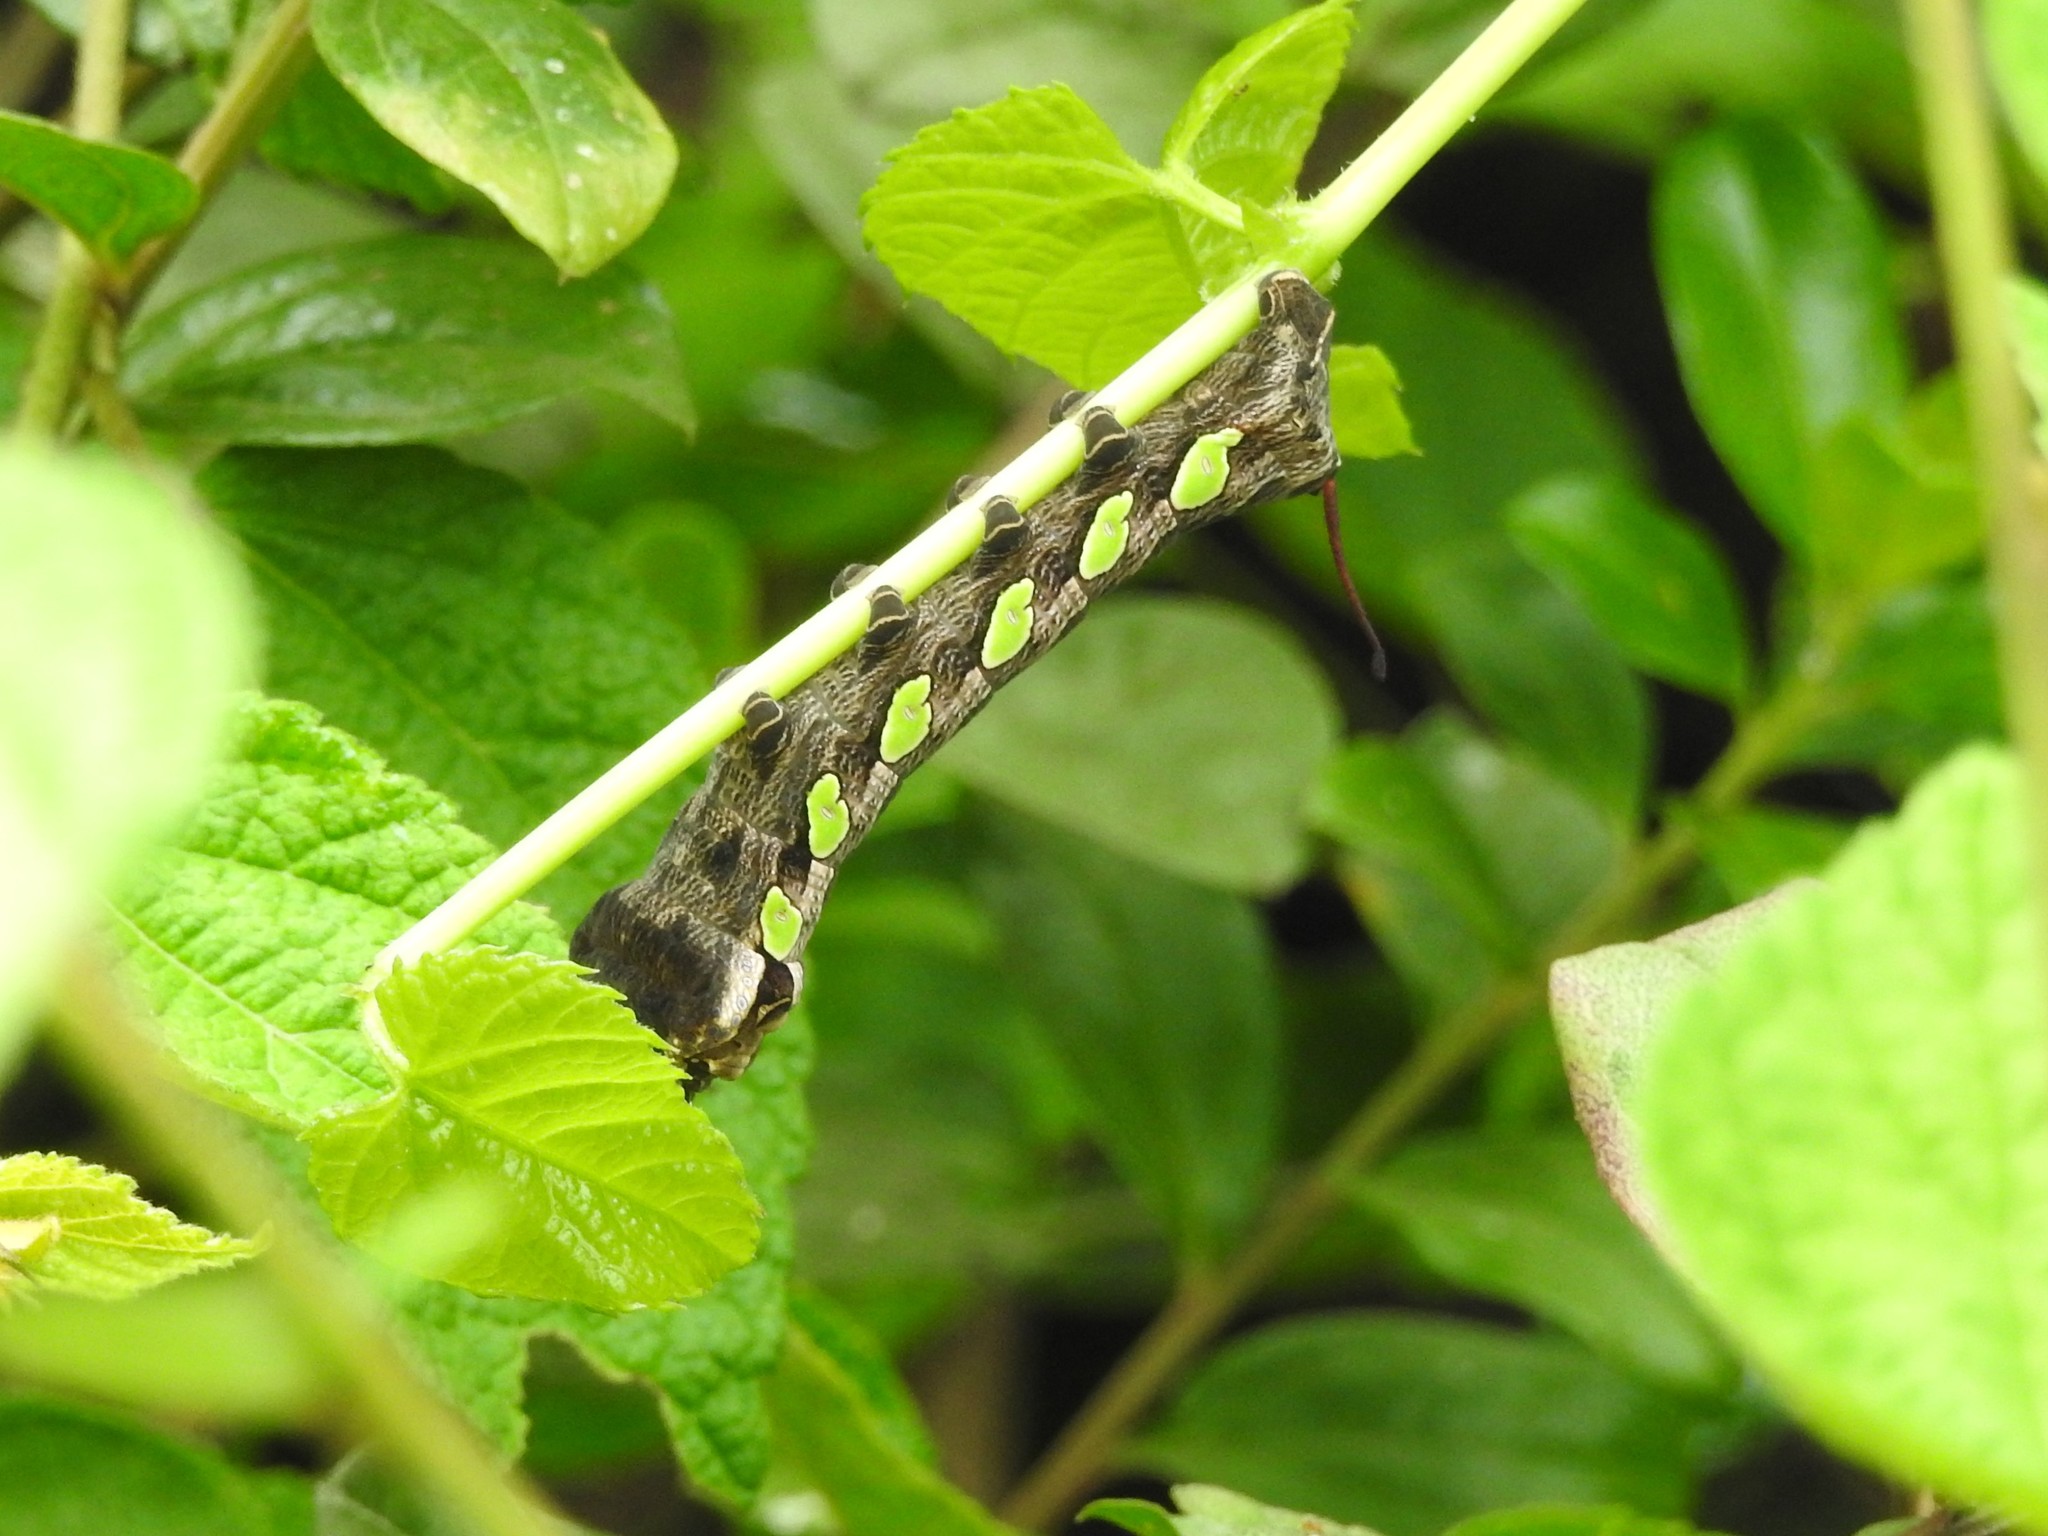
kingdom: Animalia
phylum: Arthropoda
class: Insecta
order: Lepidoptera
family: Sphingidae
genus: Eumorpha
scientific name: Eumorpha labruscae
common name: Gaudy sphinx
